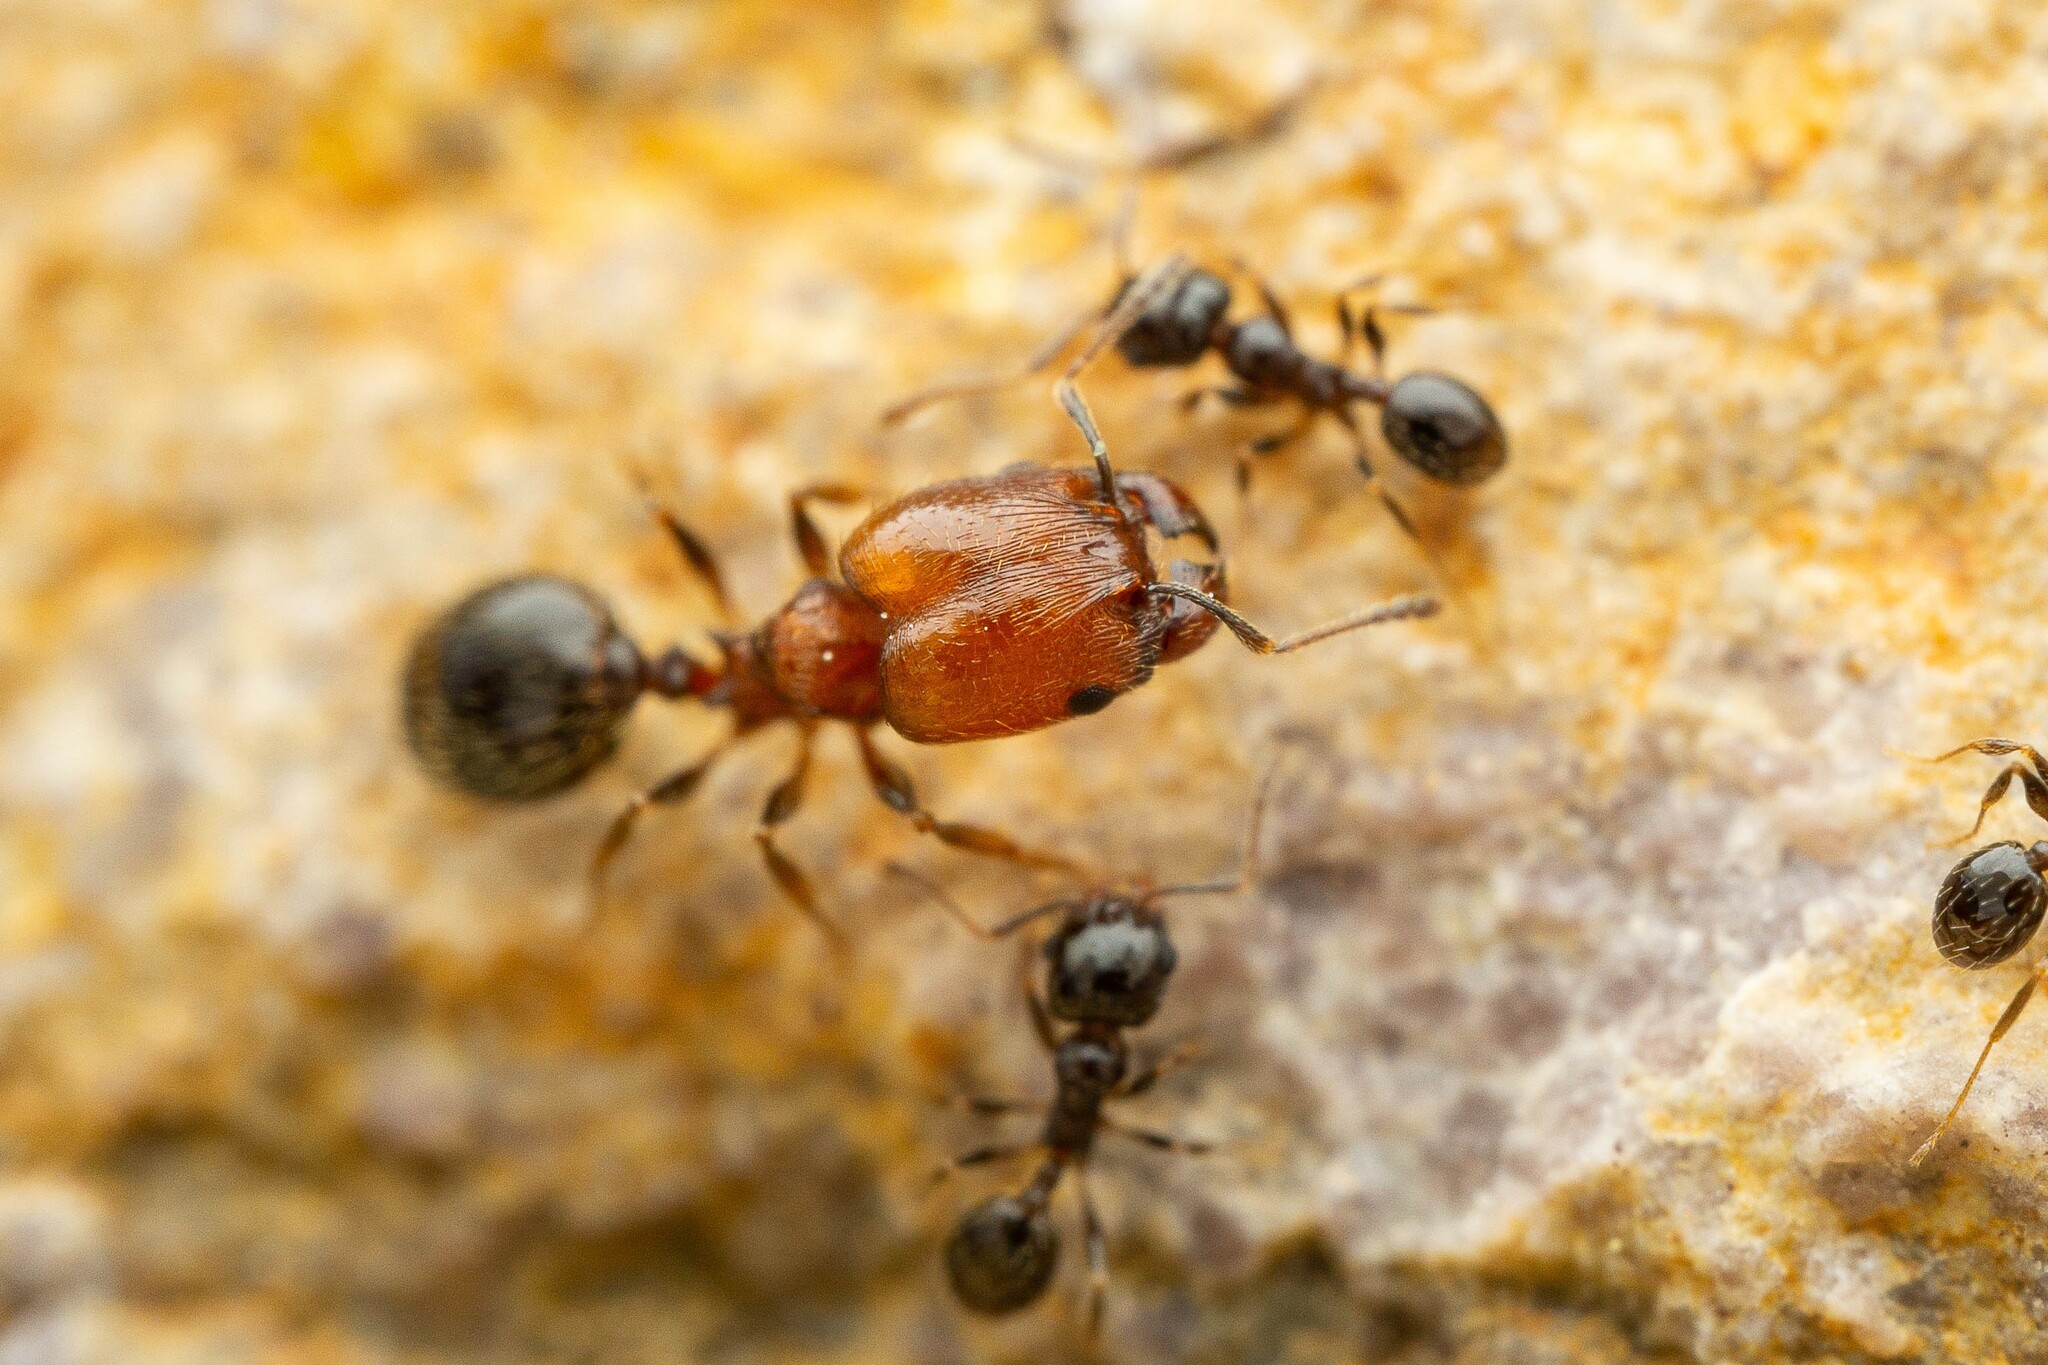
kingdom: Animalia
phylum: Arthropoda
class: Insecta
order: Hymenoptera
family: Formicidae
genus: Pheidole
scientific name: Pheidole rugulosa
